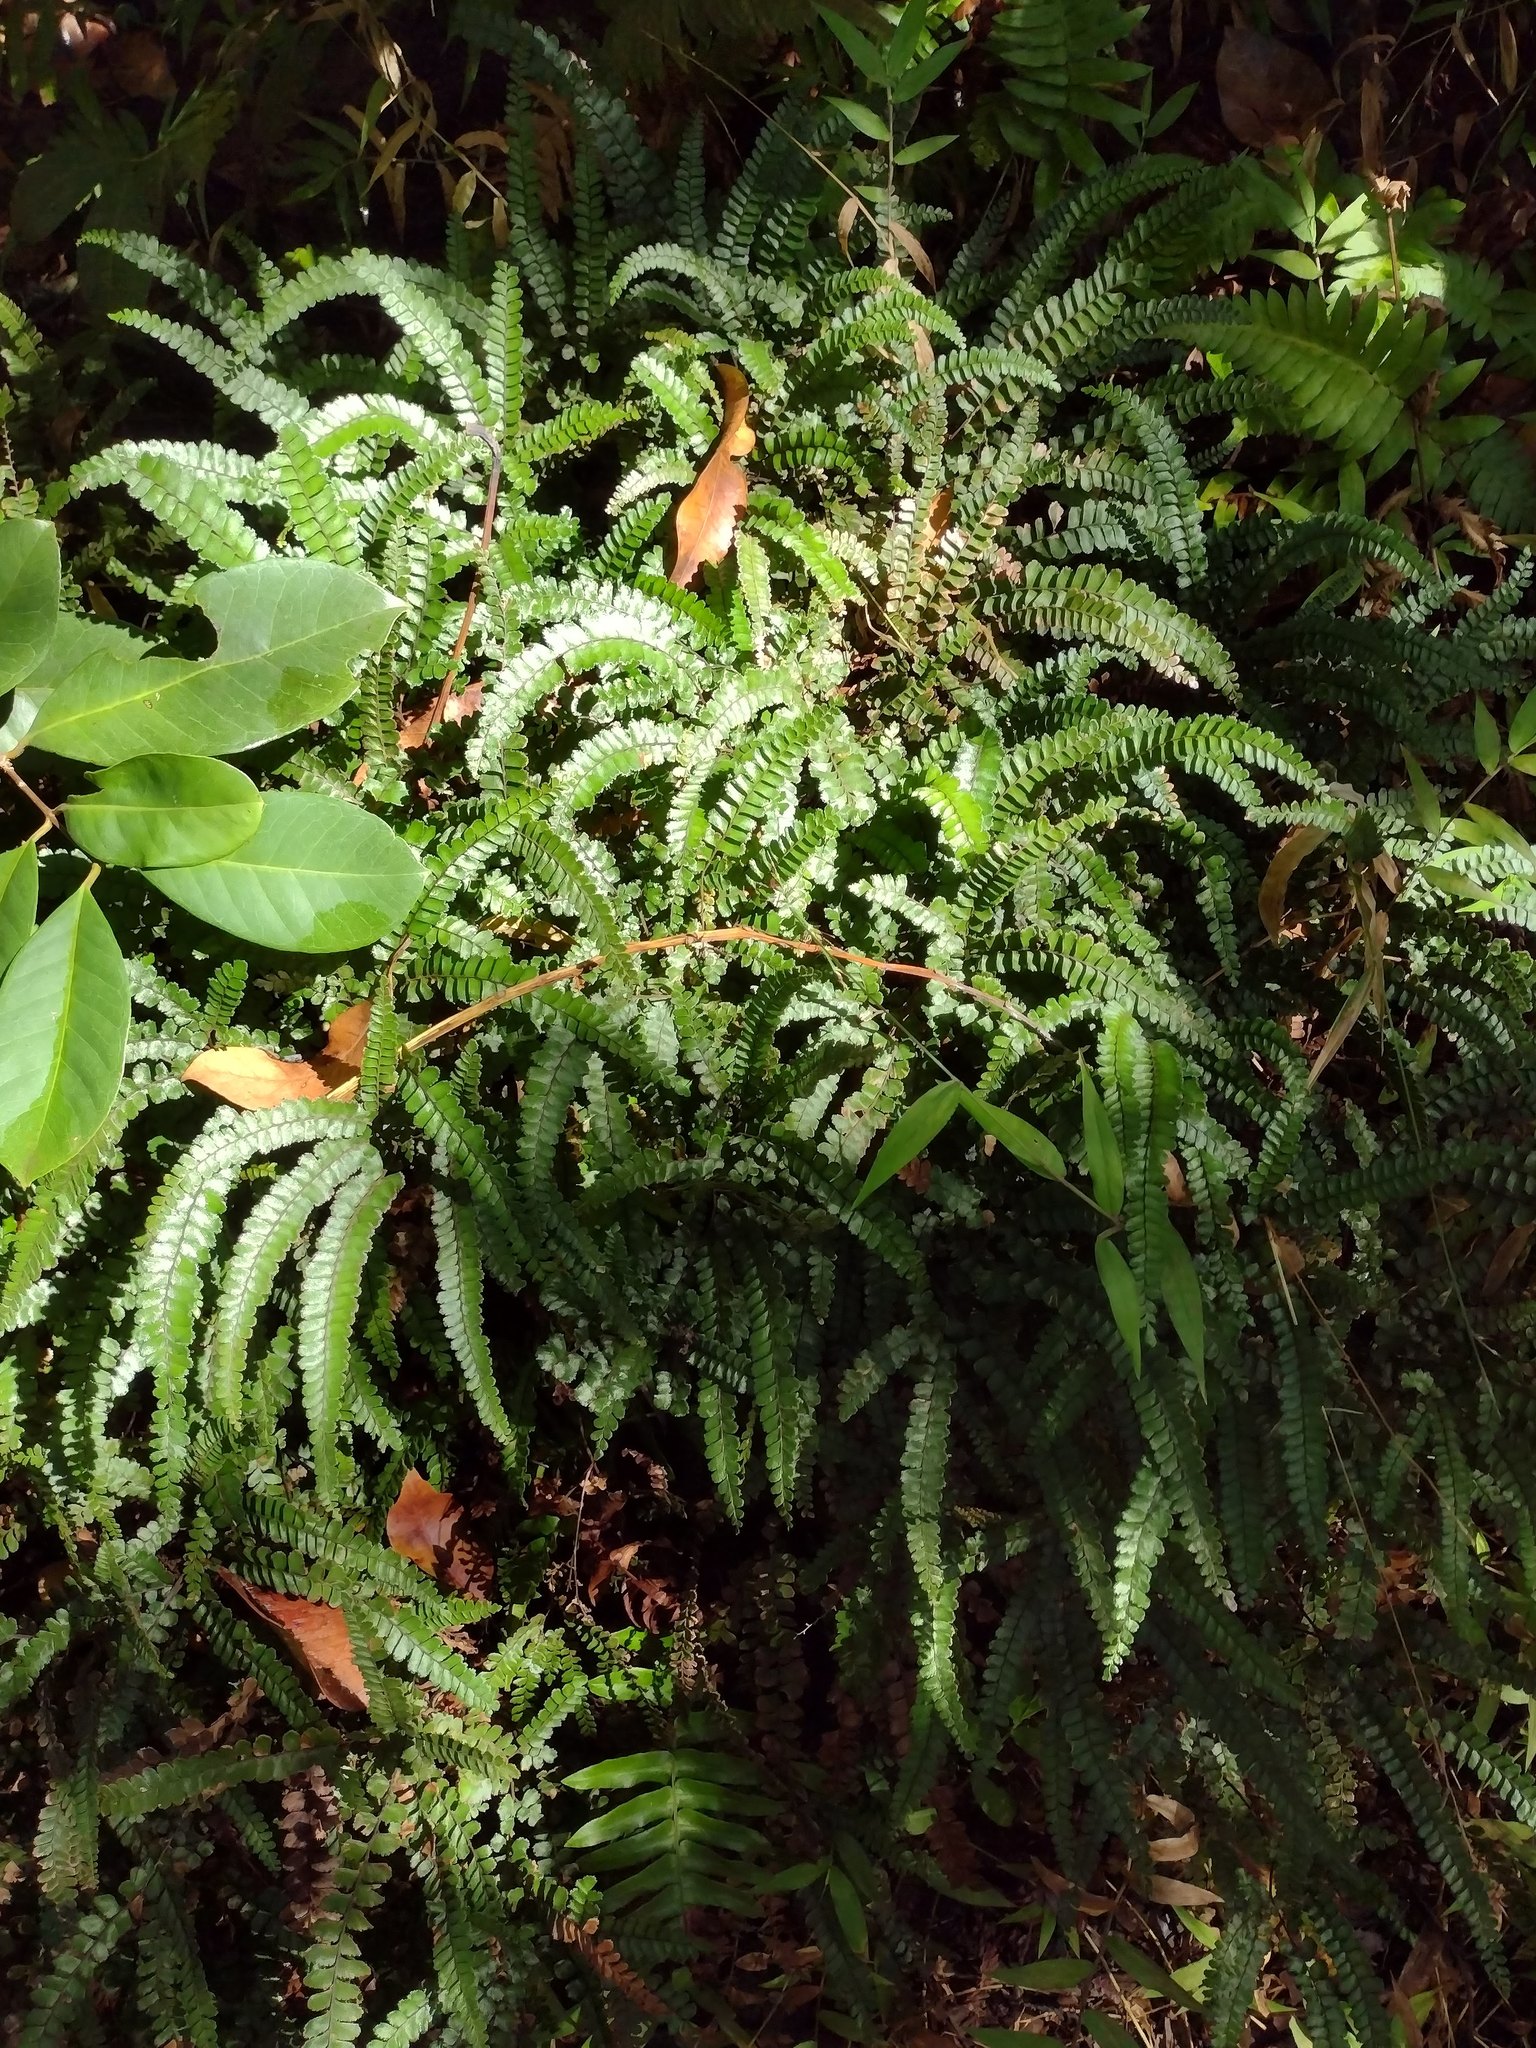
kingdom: Plantae
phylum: Tracheophyta
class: Polypodiopsida
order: Polypodiales
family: Pteridaceae
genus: Adiantum
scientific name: Adiantum hispidulum
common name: Rough maidenhair
